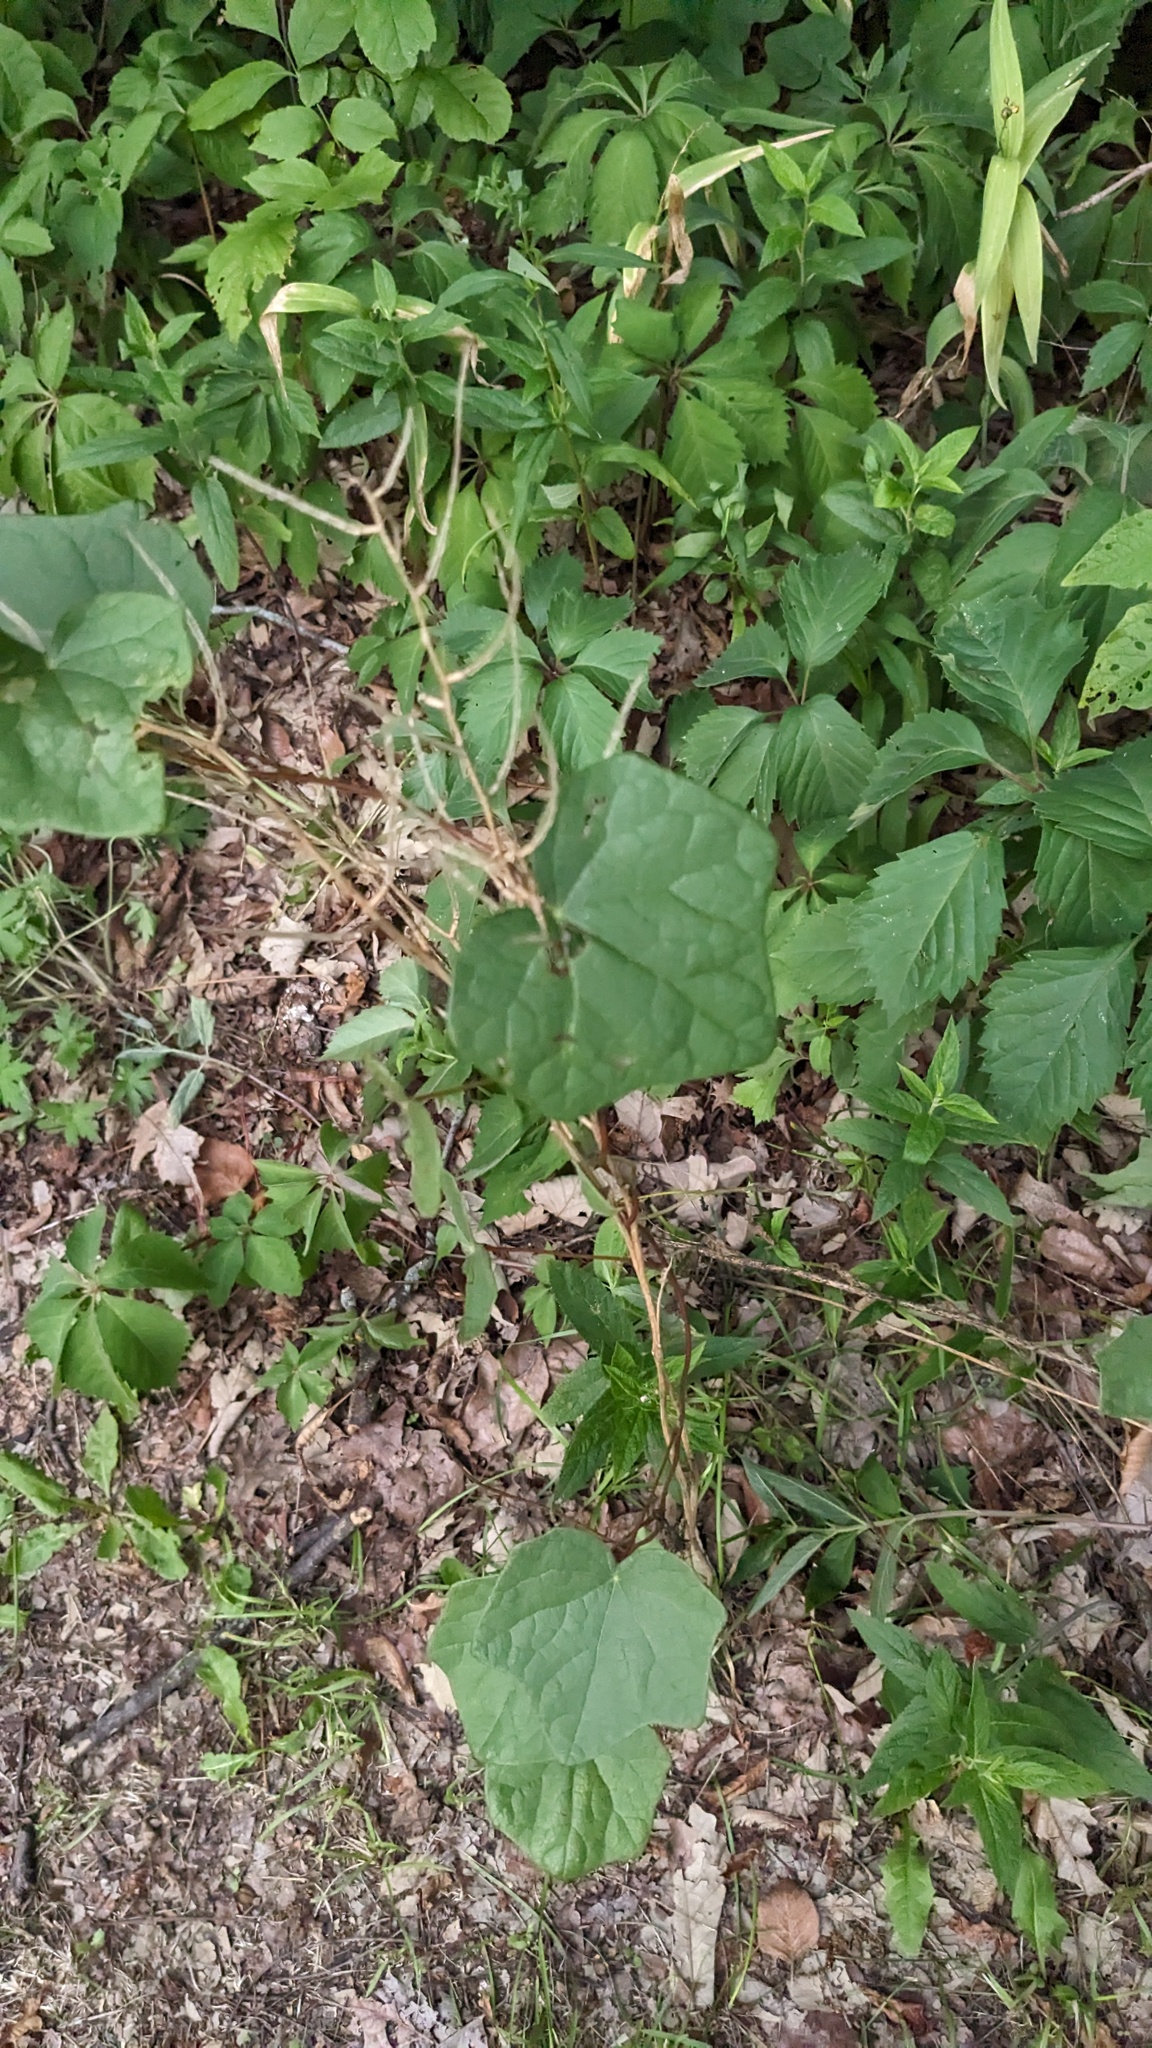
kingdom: Plantae
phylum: Tracheophyta
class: Magnoliopsida
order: Ranunculales
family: Menispermaceae
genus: Menispermum
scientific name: Menispermum canadense
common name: Moonseed
